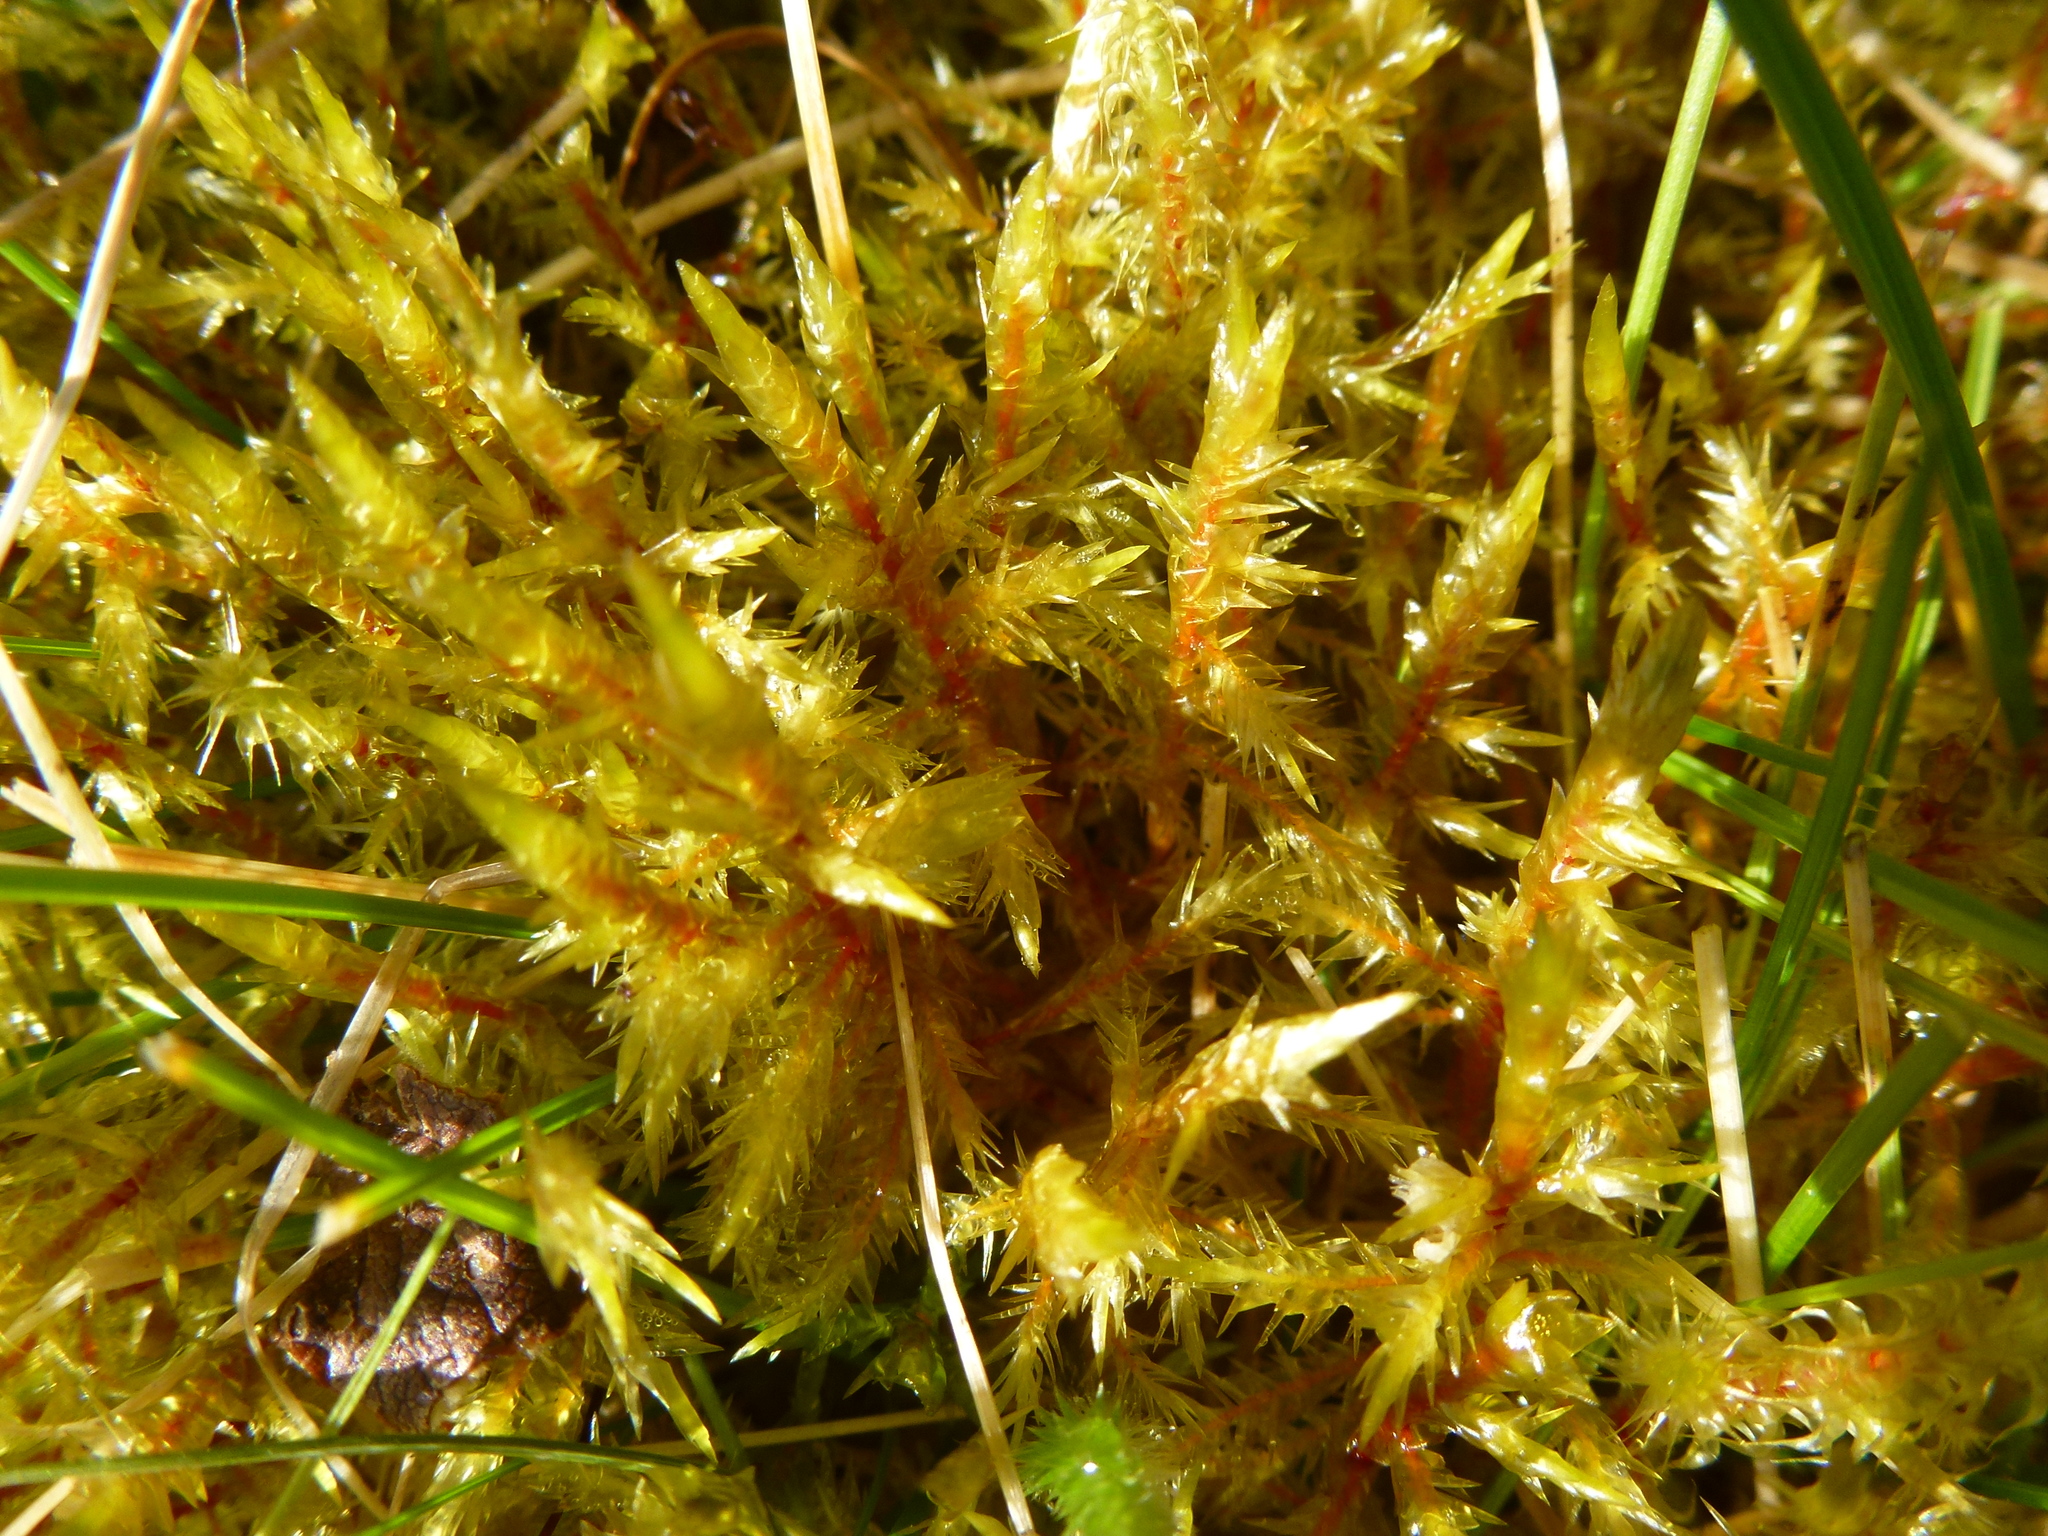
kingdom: Plantae
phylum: Bryophyta
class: Bryopsida
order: Hypnales
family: Pylaisiaceae
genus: Calliergonella
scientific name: Calliergonella cuspidata
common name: Common large wetland moss
